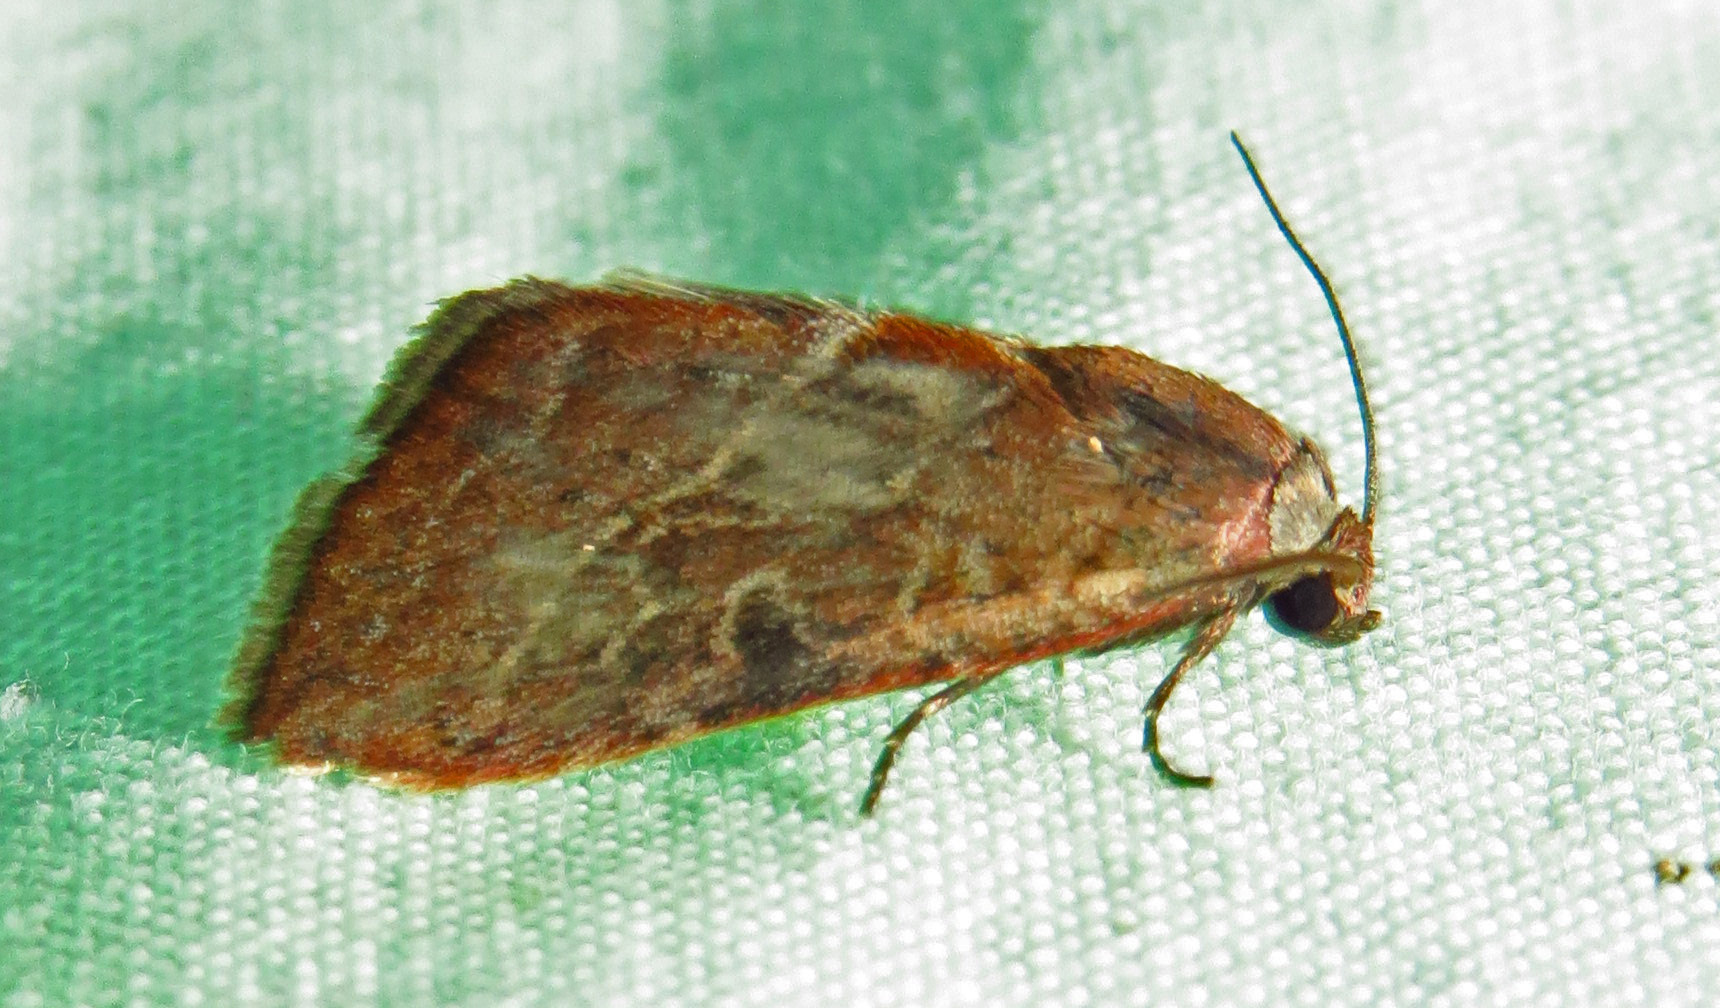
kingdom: Animalia
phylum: Arthropoda
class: Insecta
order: Lepidoptera
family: Noctuidae
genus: Galgula
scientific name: Galgula partita
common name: Wedgeling
